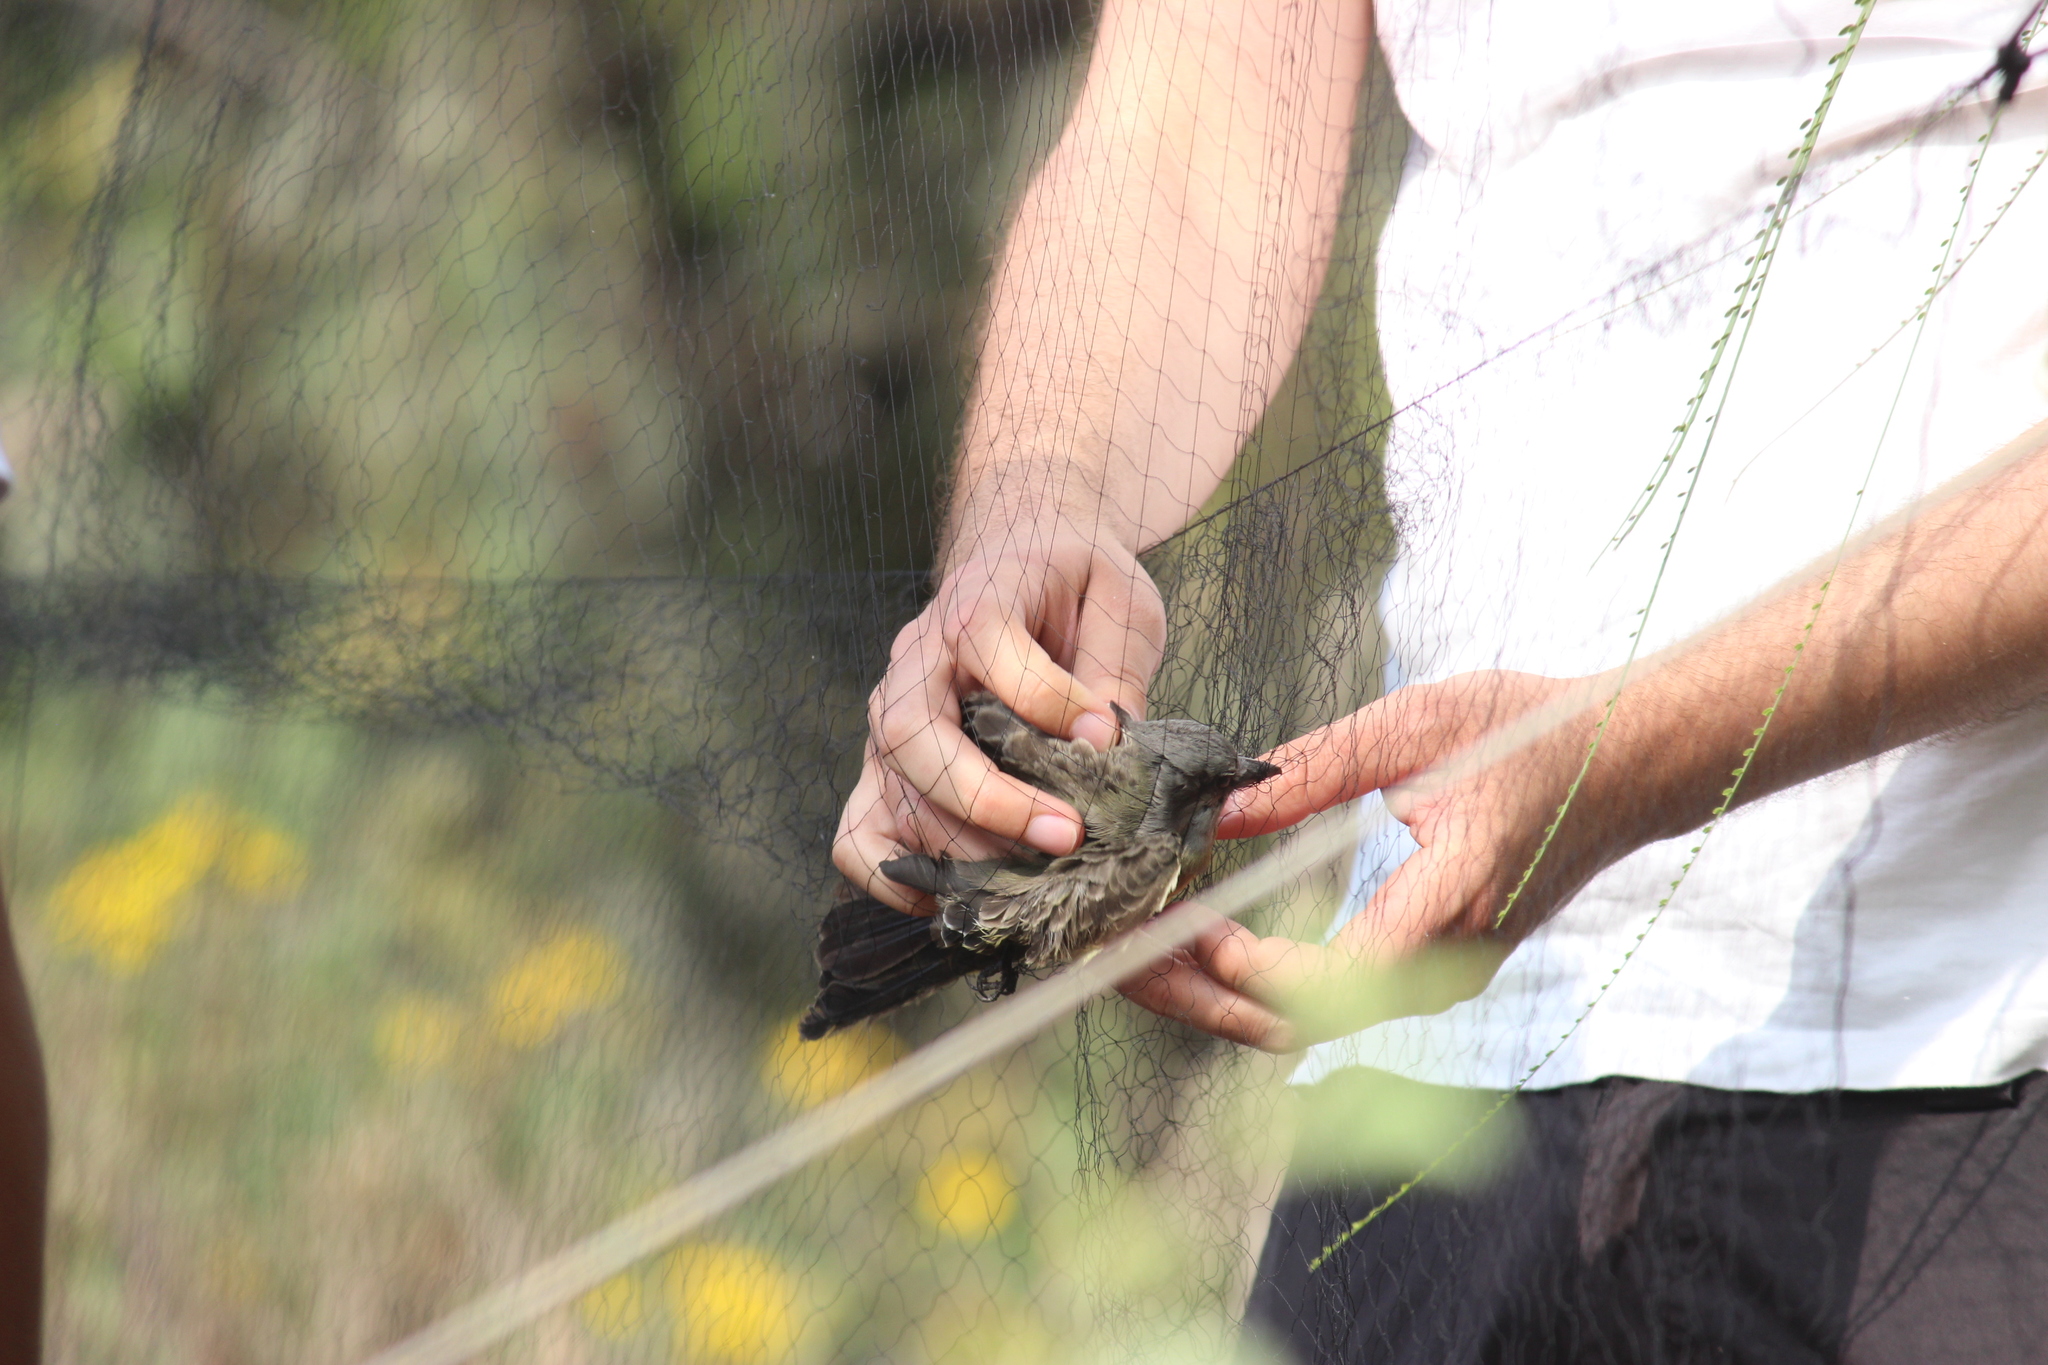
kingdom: Animalia
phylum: Chordata
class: Aves
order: Passeriformes
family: Tyrannidae
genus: Tyrannus
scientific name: Tyrannus melancholicus
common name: Tropical kingbird
